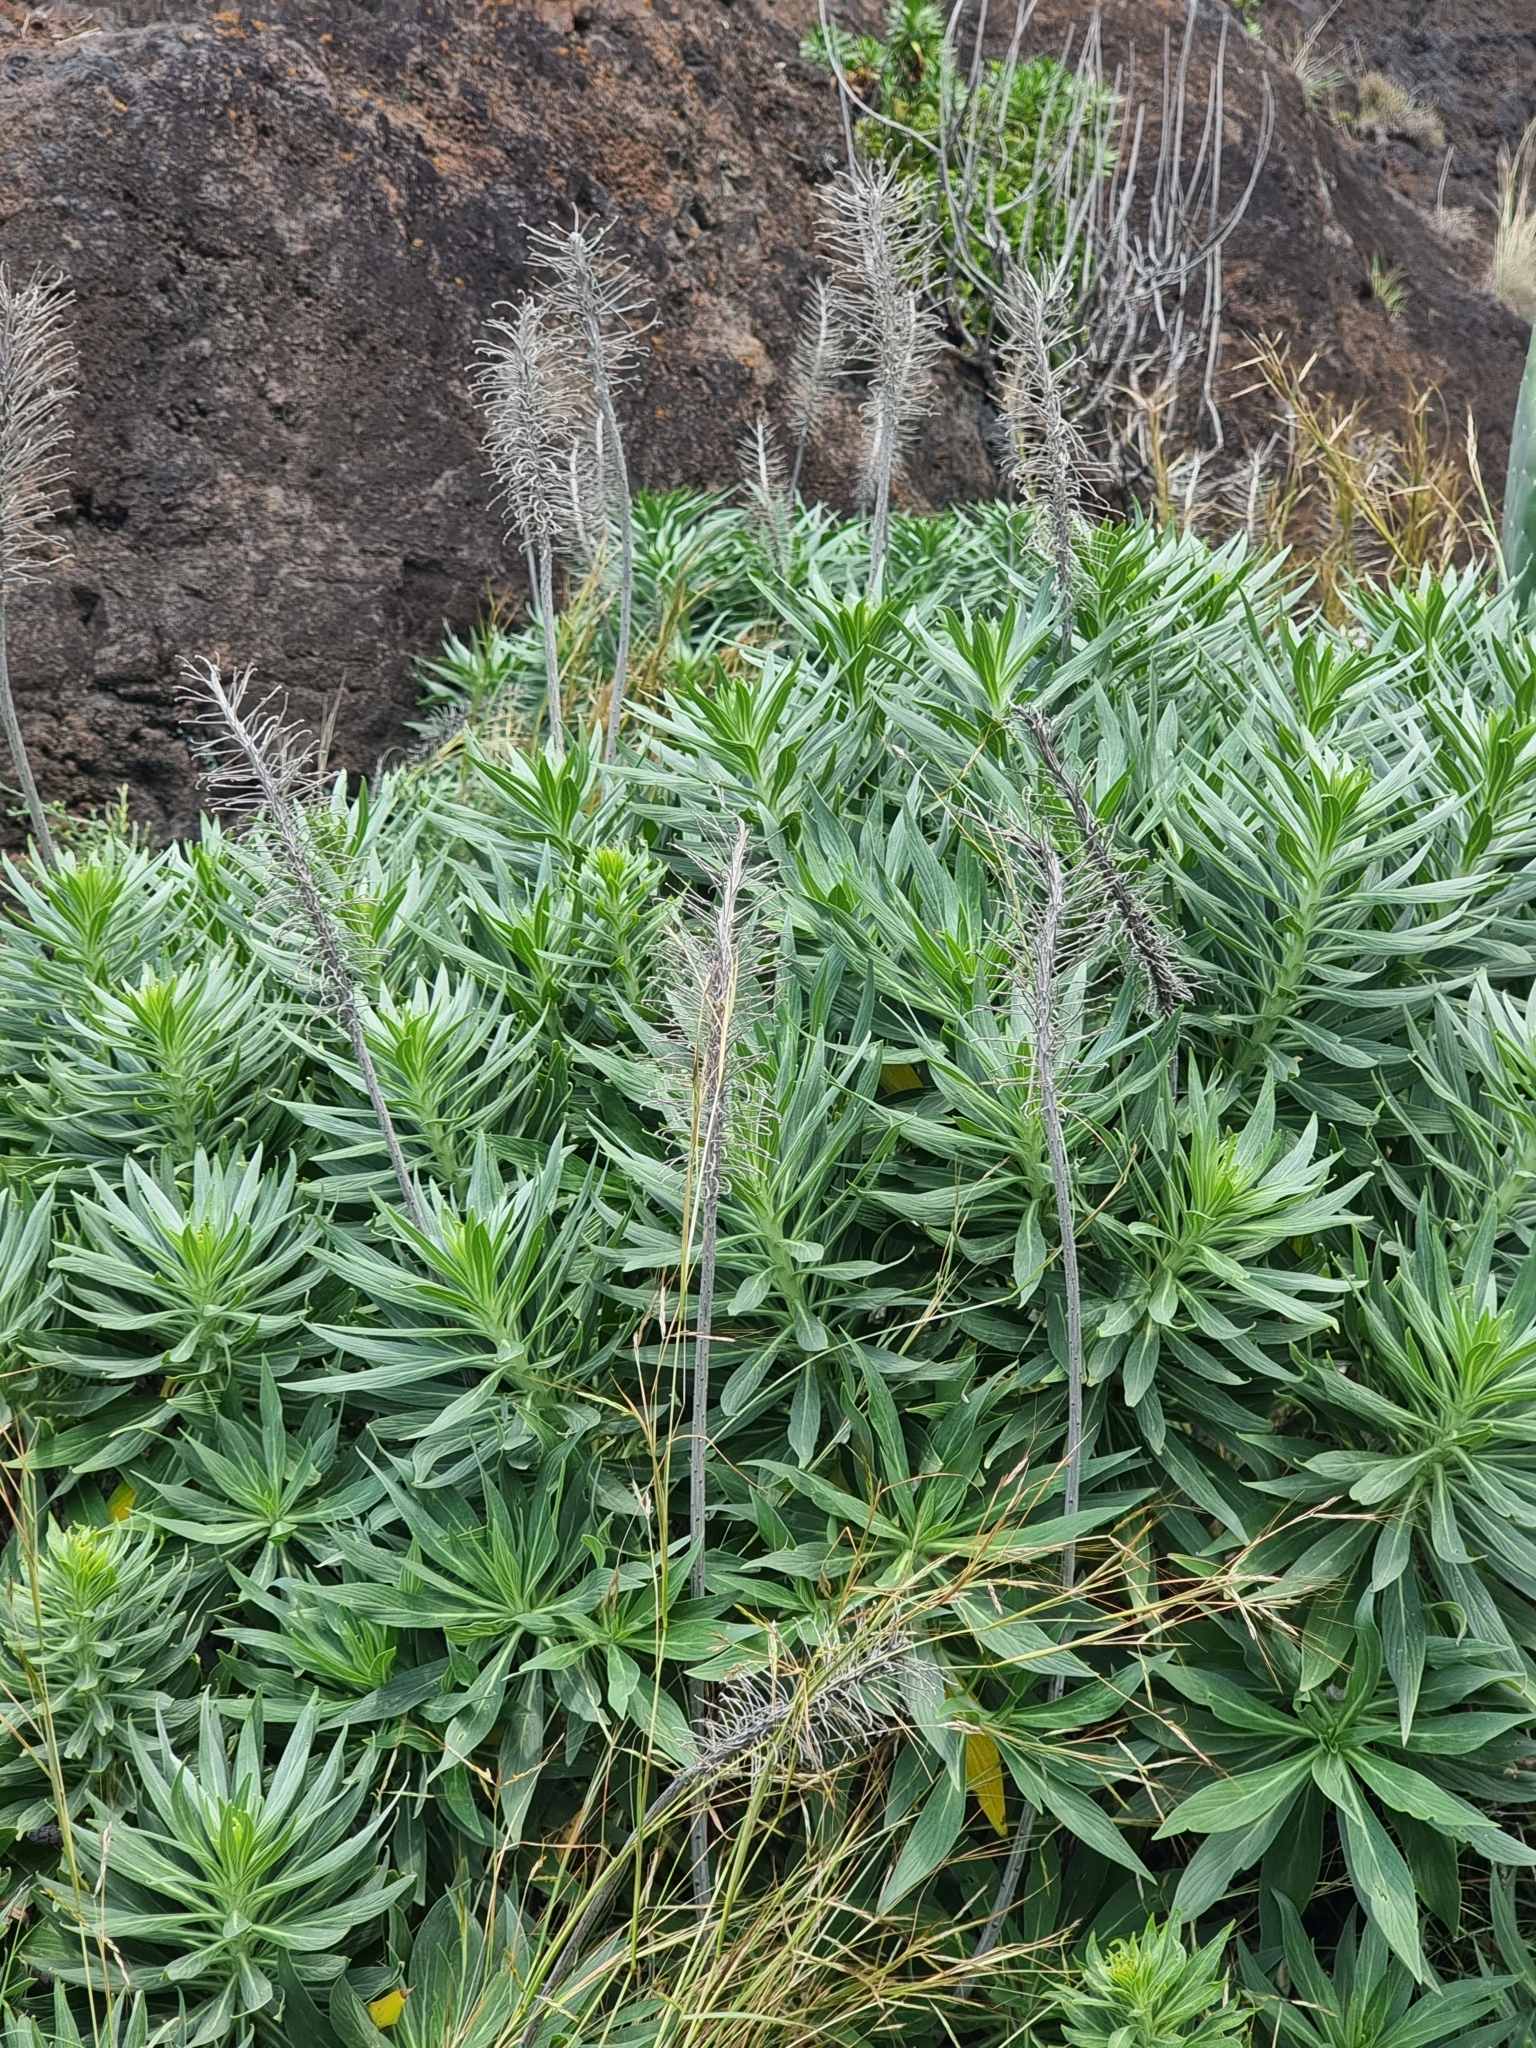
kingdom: Plantae
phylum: Tracheophyta
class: Magnoliopsida
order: Boraginales
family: Boraginaceae
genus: Echium
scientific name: Echium nervosum
